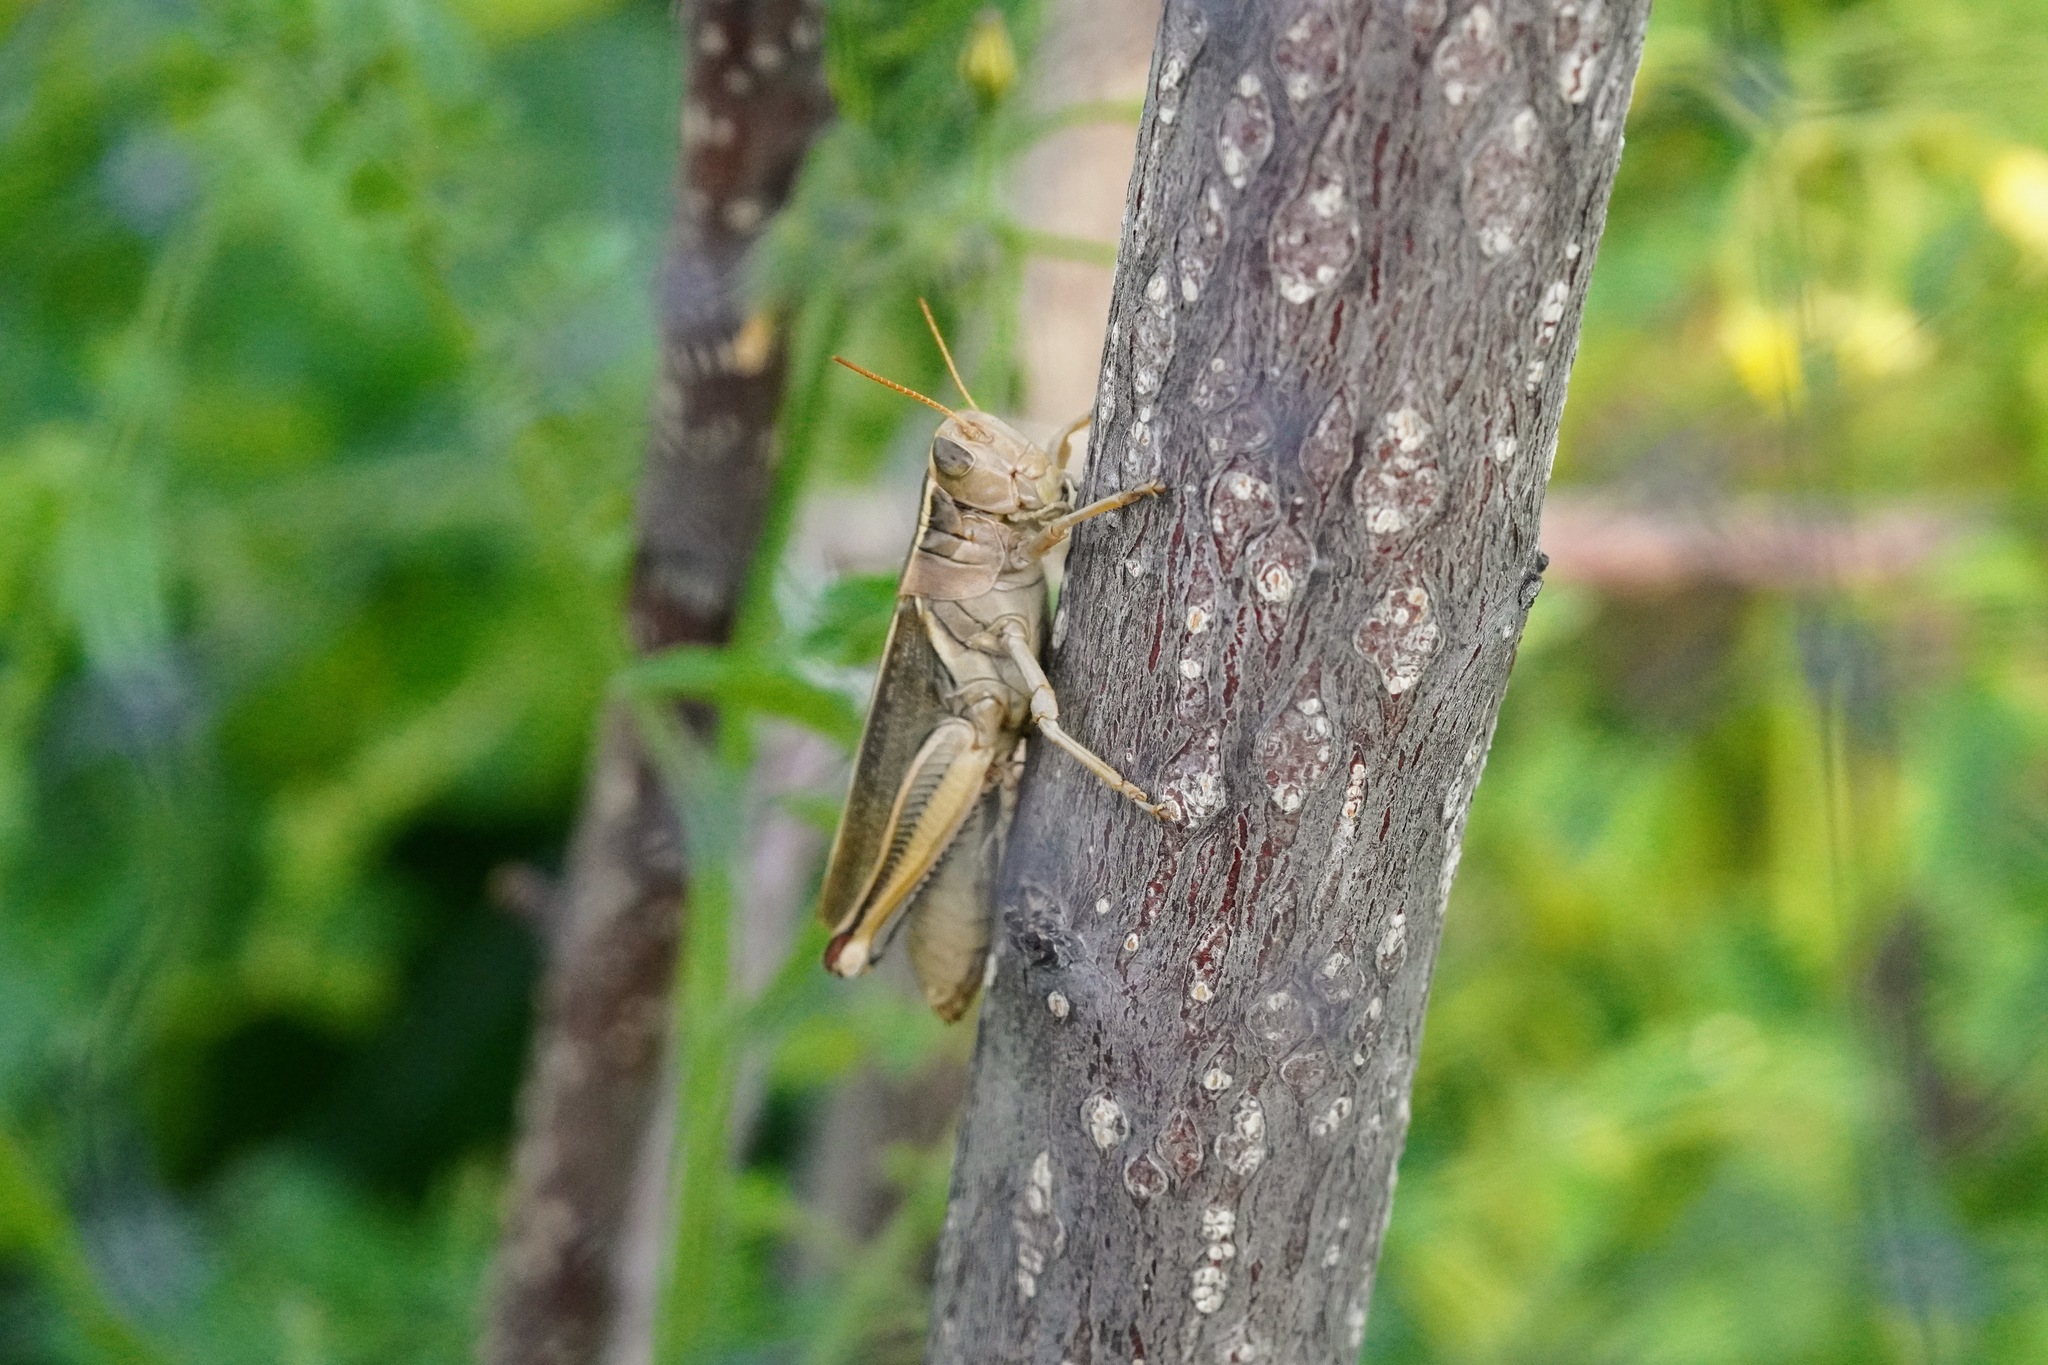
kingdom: Animalia
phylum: Arthropoda
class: Insecta
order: Orthoptera
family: Acrididae
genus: Melanoplus
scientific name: Melanoplus bivittatus
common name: Two-striped grasshopper
